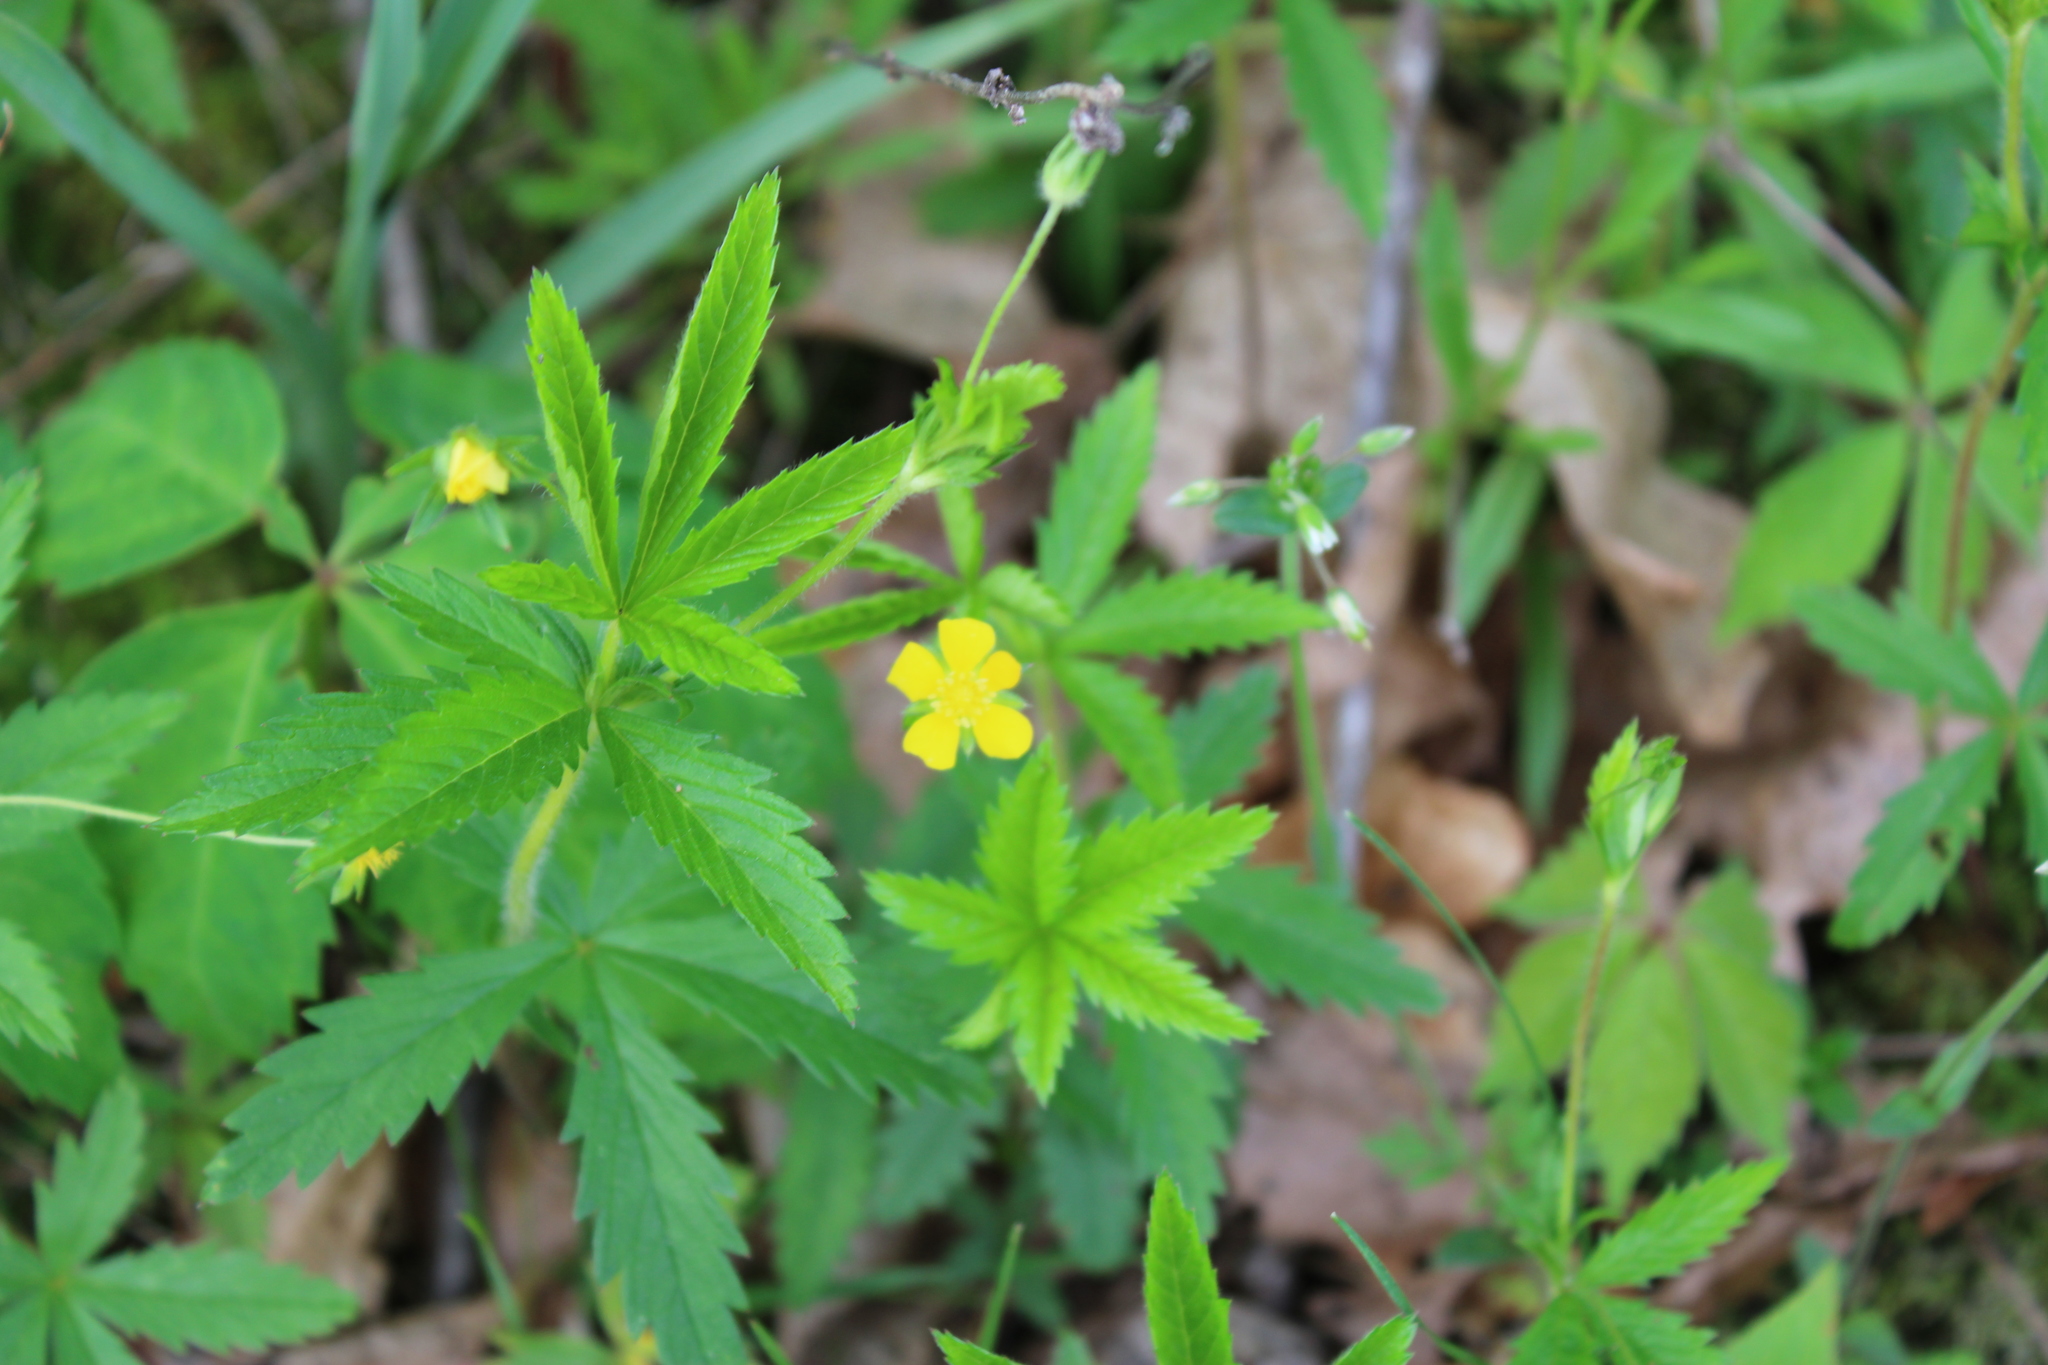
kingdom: Plantae
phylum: Tracheophyta
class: Magnoliopsida
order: Rosales
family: Rosaceae
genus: Potentilla
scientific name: Potentilla simplex
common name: Old field cinquefoil
